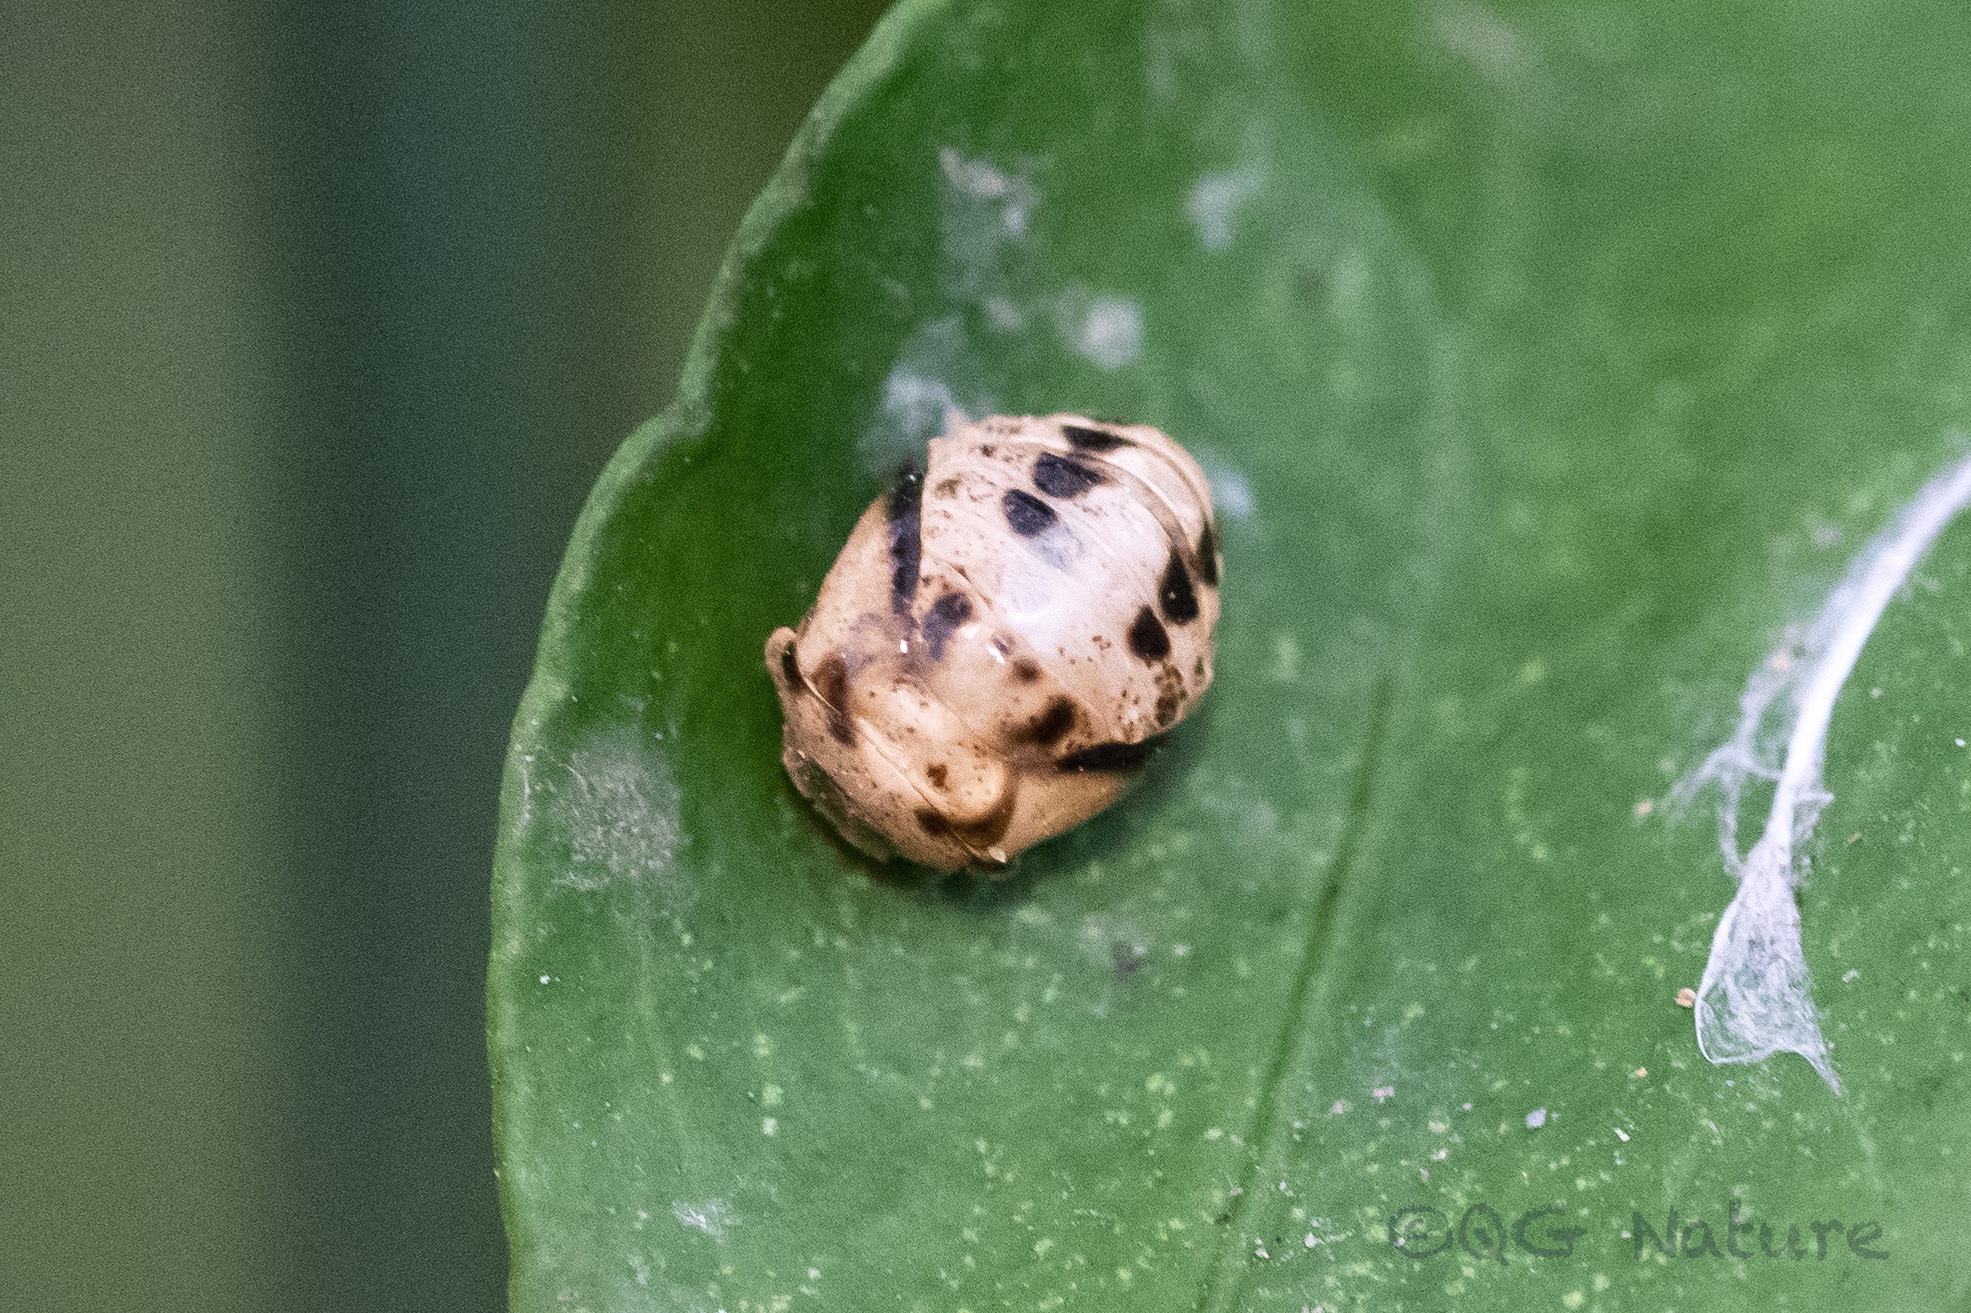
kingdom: Animalia
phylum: Arthropoda
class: Insecta
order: Coleoptera
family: Coccinellidae
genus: Cheilomenes
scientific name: Cheilomenes sexmaculata
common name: Ladybird beetle
